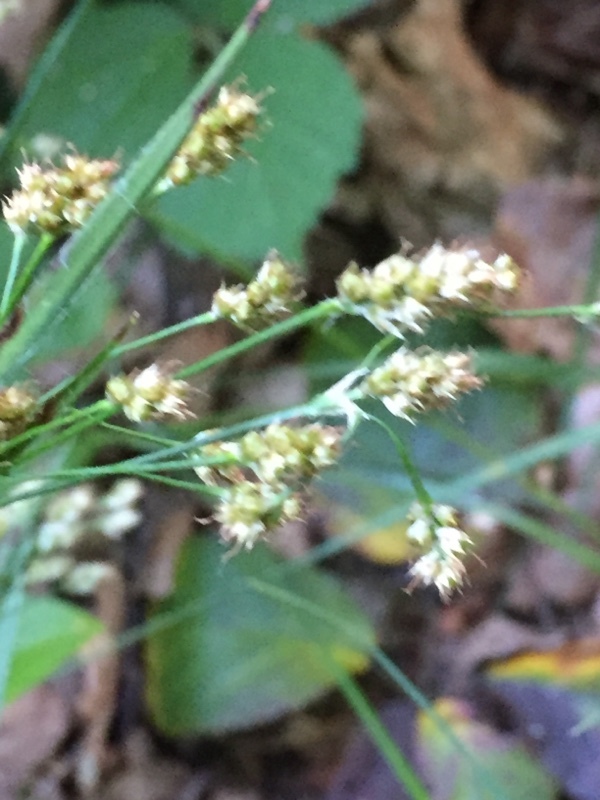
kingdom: Plantae
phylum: Tracheophyta
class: Liliopsida
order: Poales
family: Juncaceae
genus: Luzula
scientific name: Luzula multiflora
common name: Heath wood-rush
